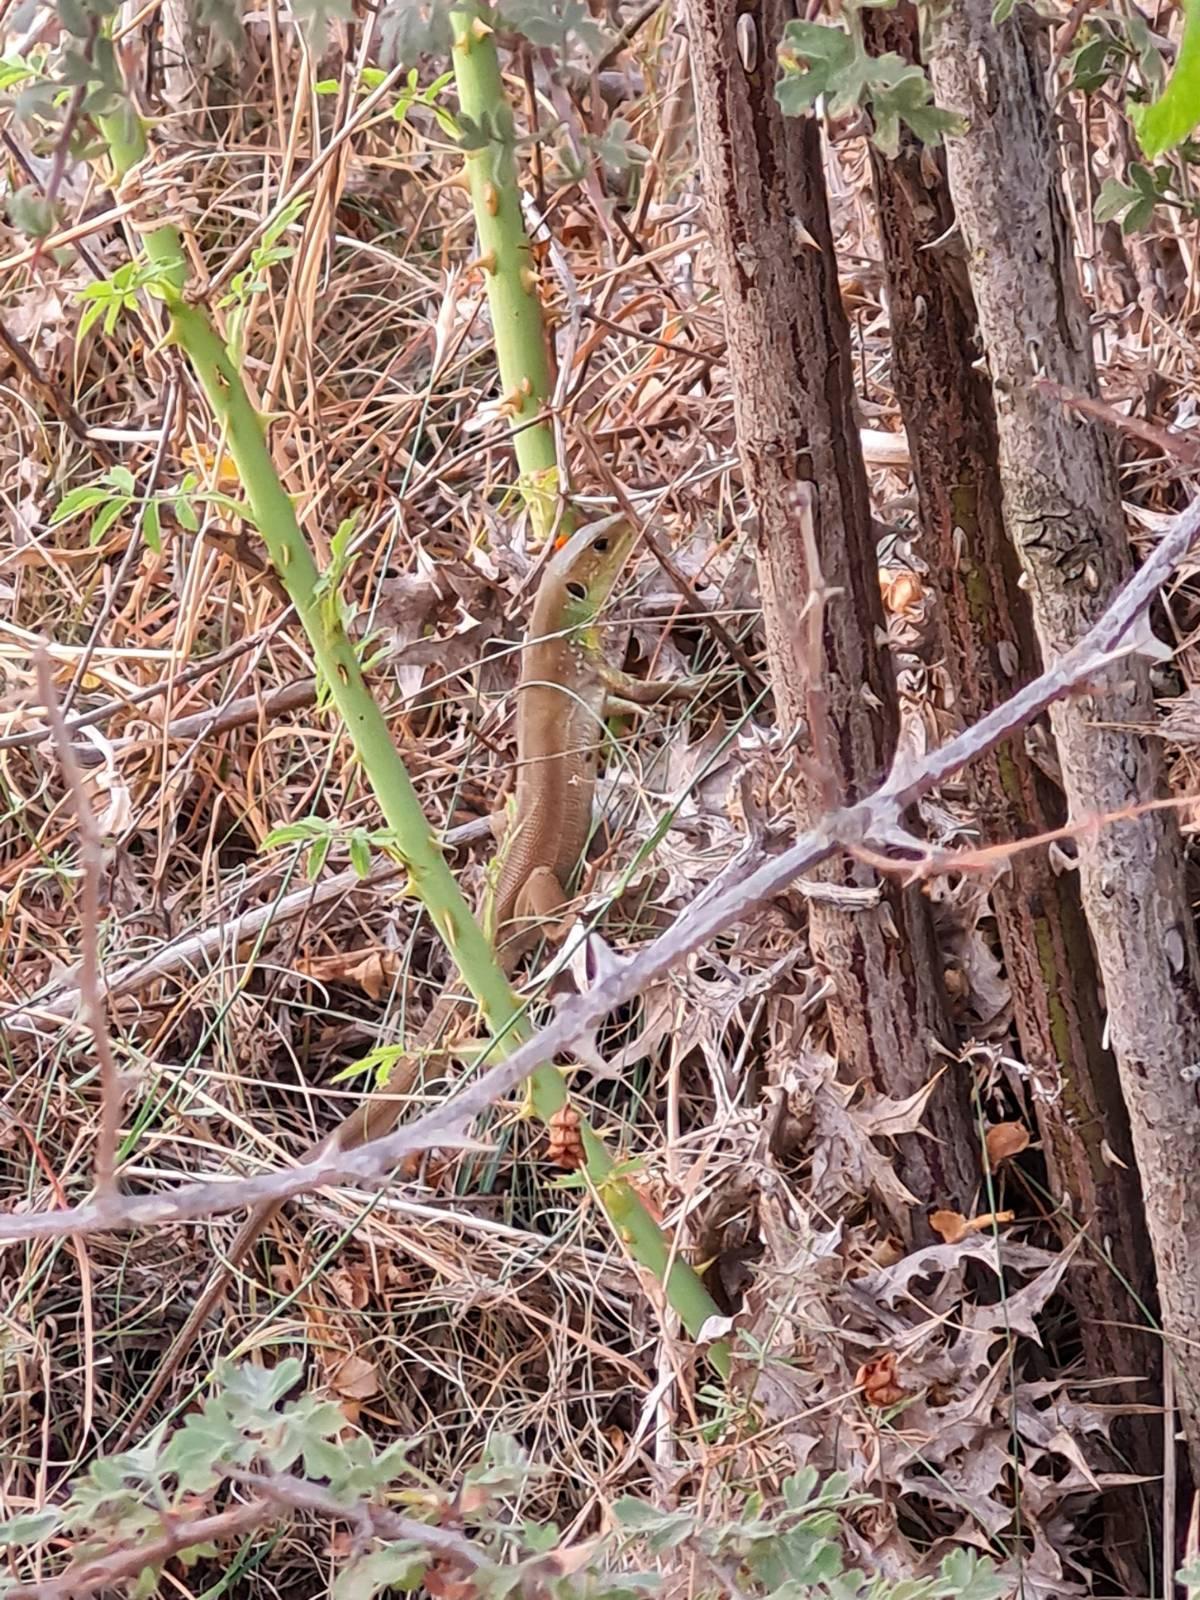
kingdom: Animalia
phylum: Chordata
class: Squamata
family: Lacertidae
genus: Lacerta
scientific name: Lacerta trilineata
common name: Balkan green lizard
